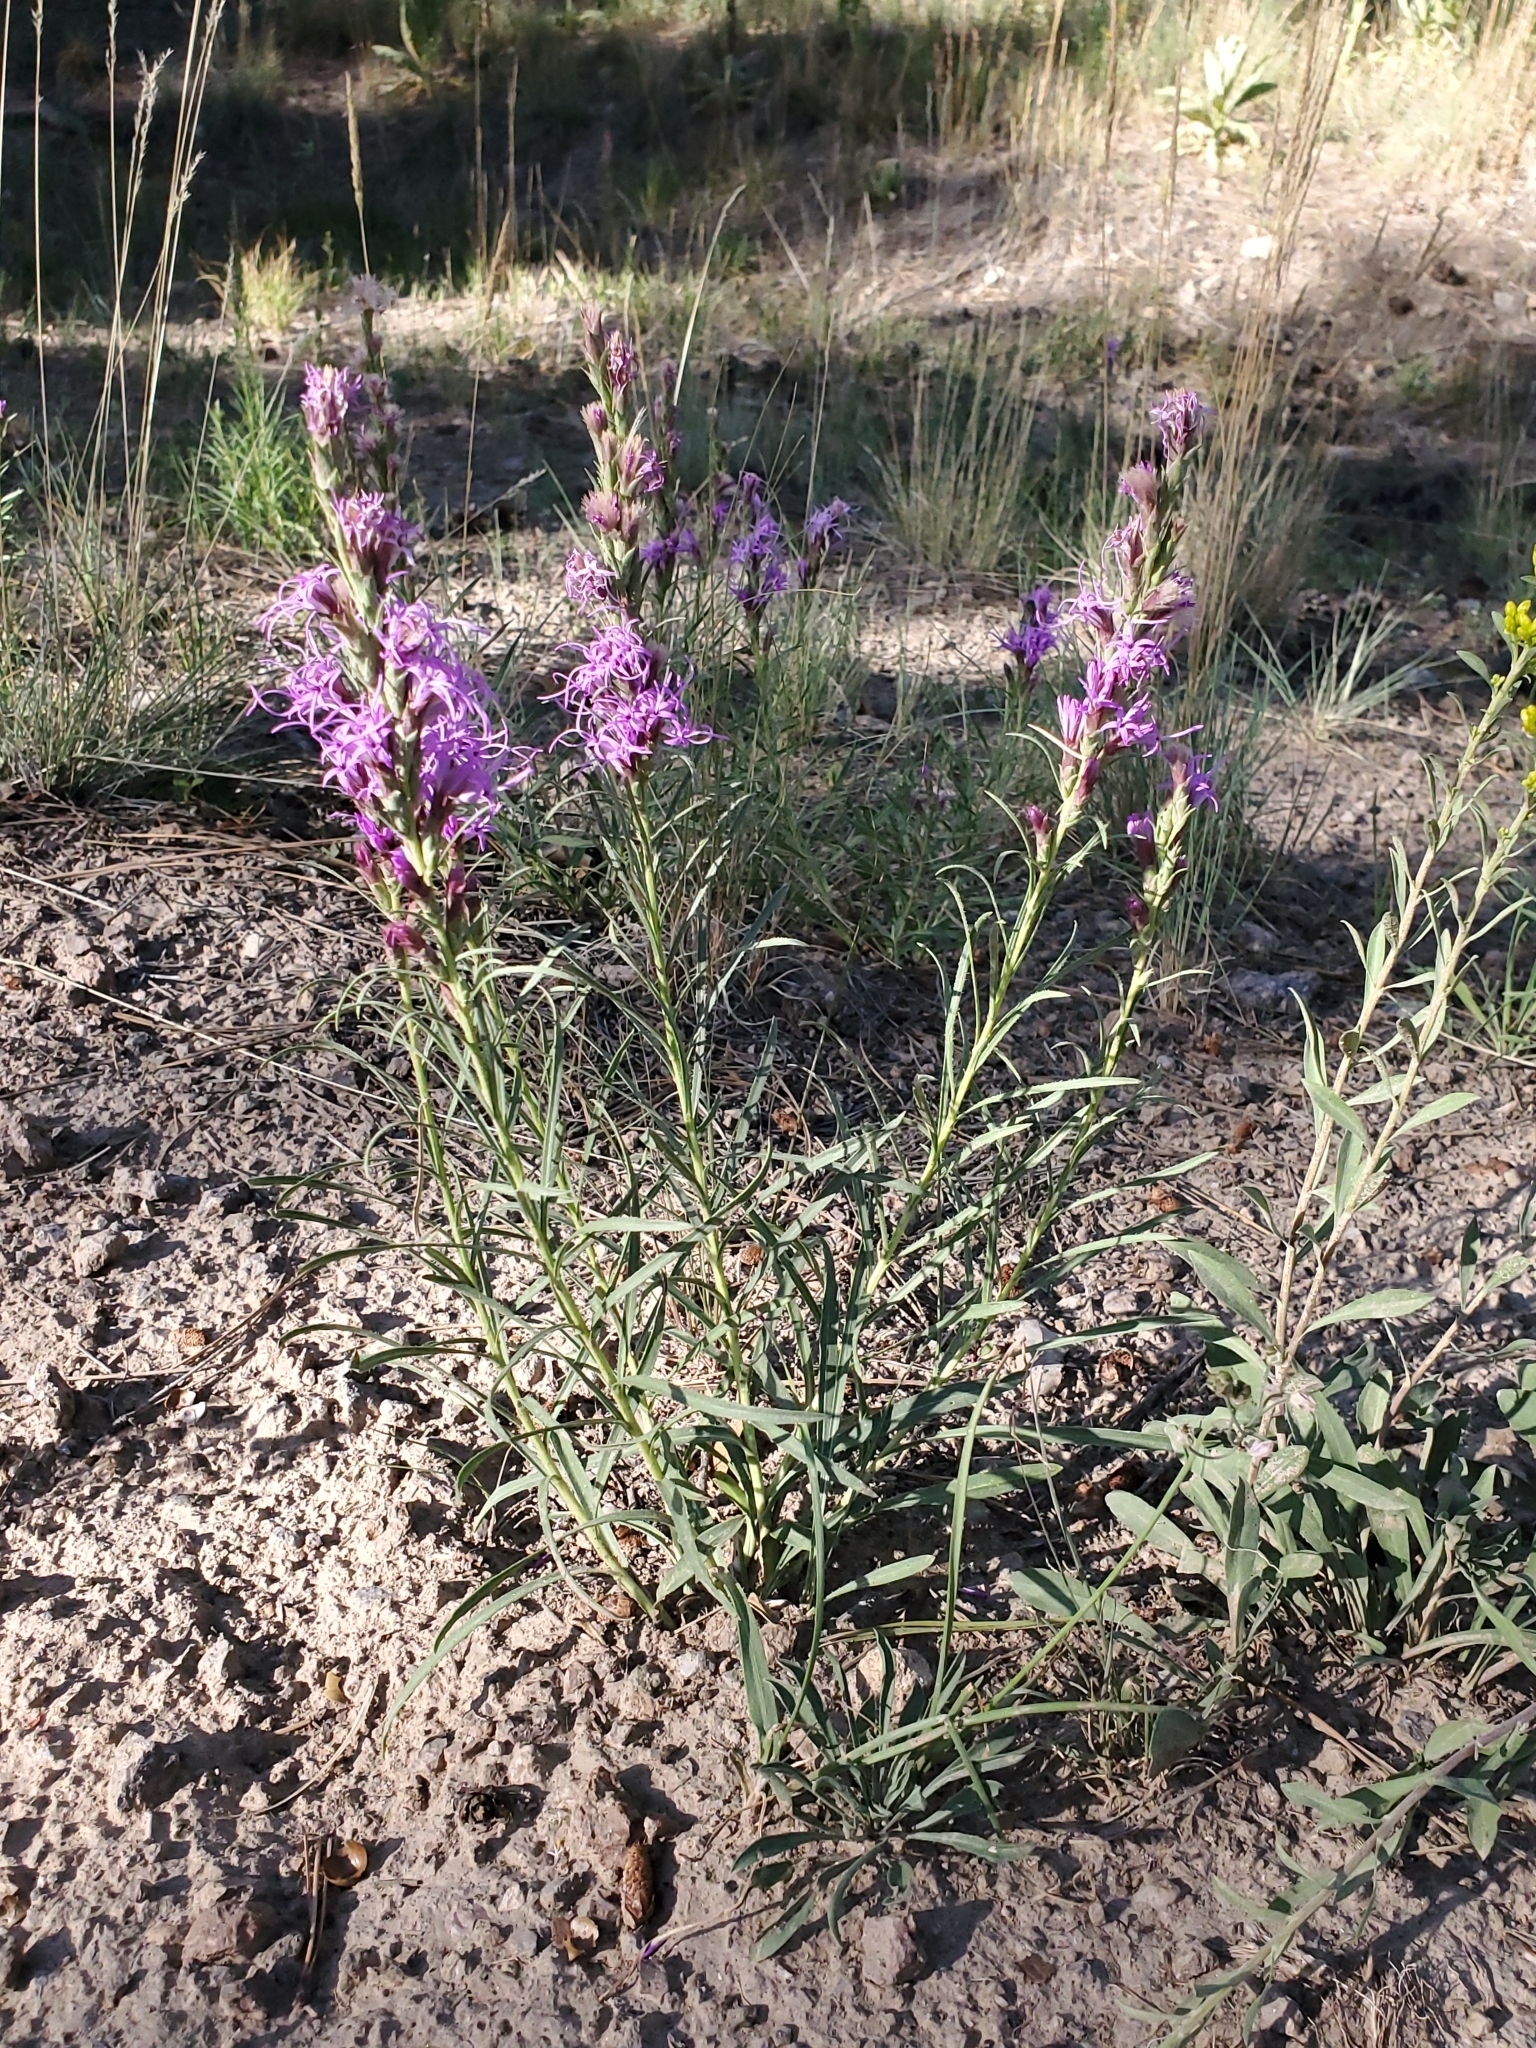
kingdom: Plantae
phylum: Tracheophyta
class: Magnoliopsida
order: Asterales
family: Asteraceae
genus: Liatris
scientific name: Liatris punctata
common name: Dotted gayfeather
